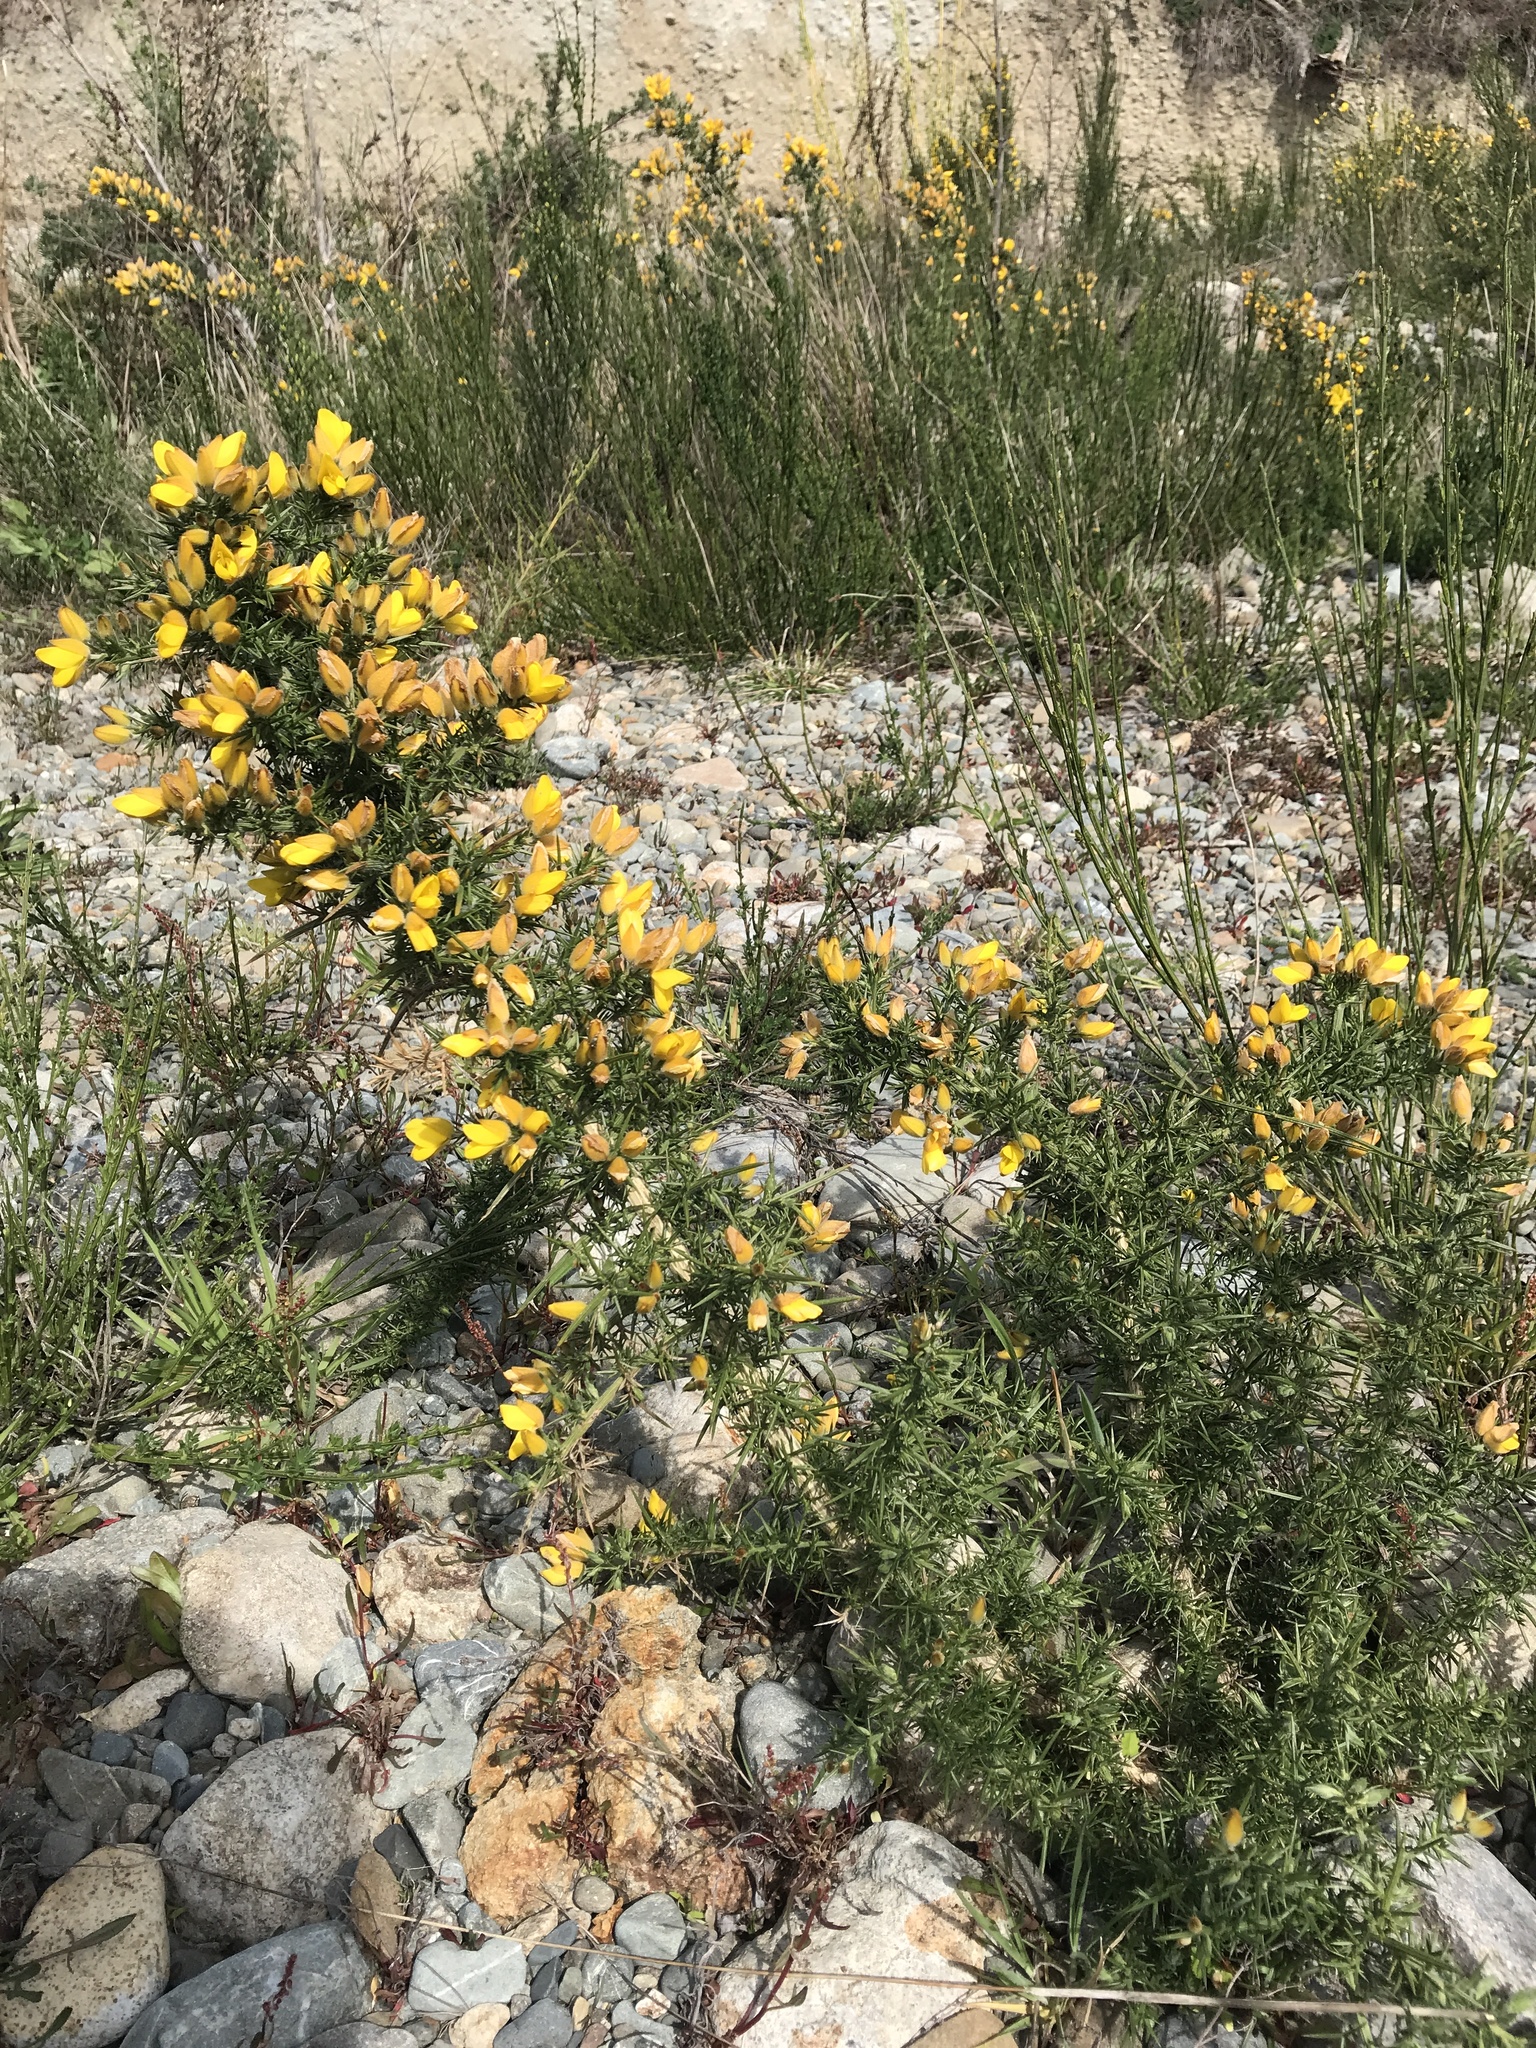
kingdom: Plantae
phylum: Tracheophyta
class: Magnoliopsida
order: Fabales
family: Fabaceae
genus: Ulex
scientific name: Ulex europaeus
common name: Common gorse
